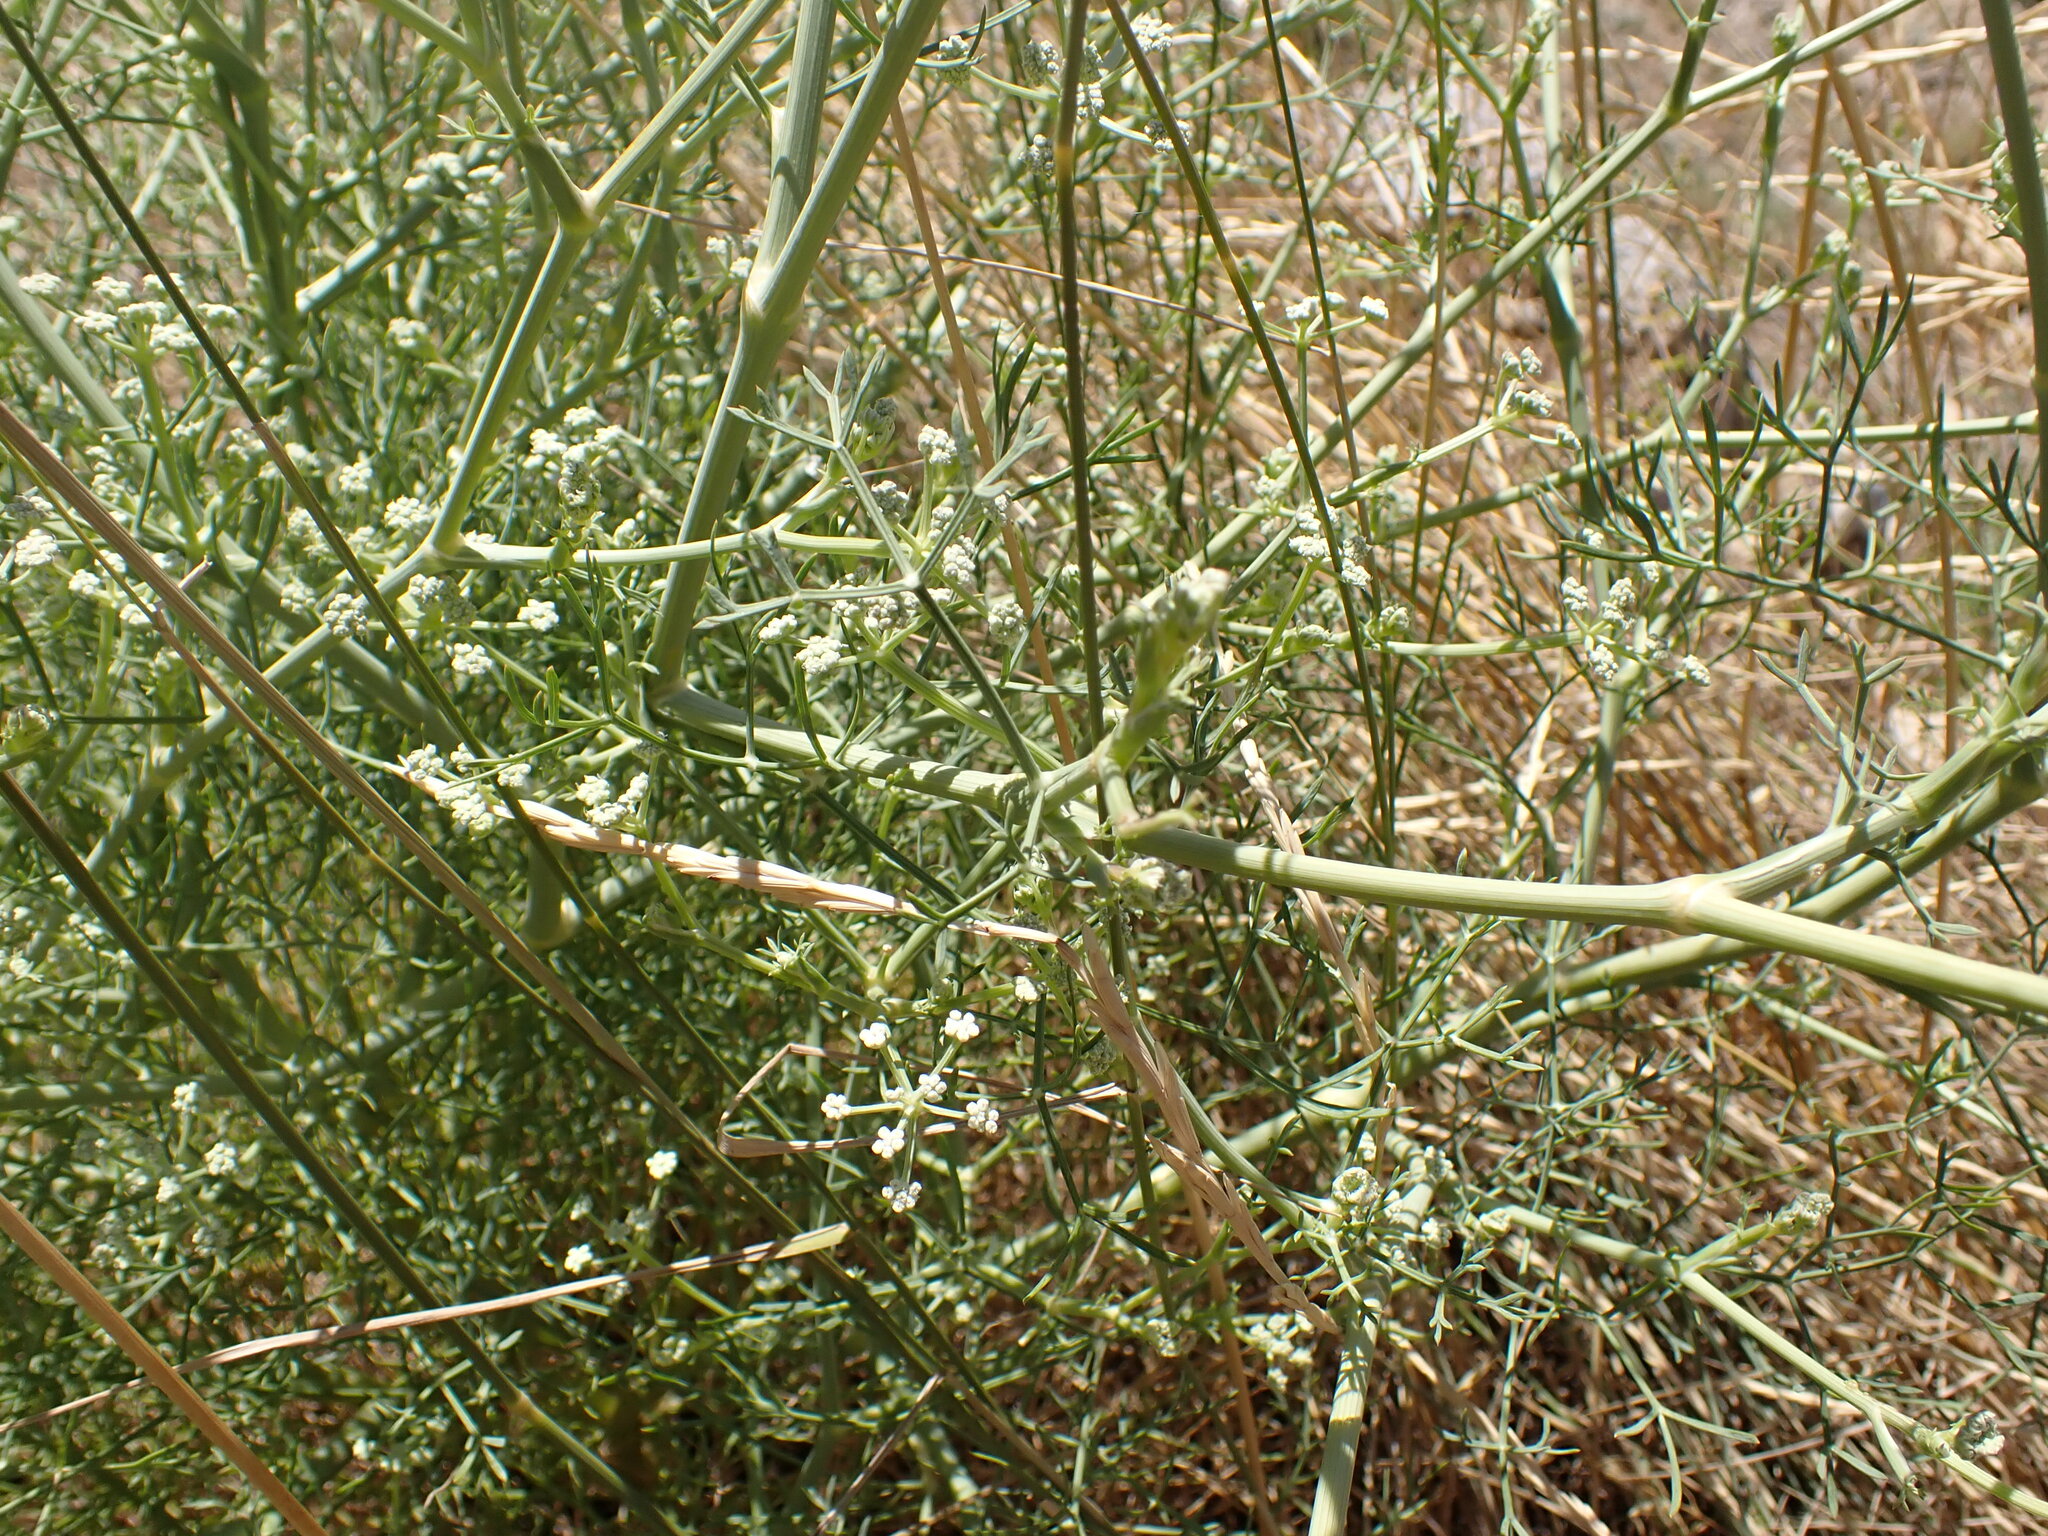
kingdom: Plantae
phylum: Tracheophyta
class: Magnoliopsida
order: Apiales
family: Apiaceae
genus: Seseli
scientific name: Seseli tortuosum
